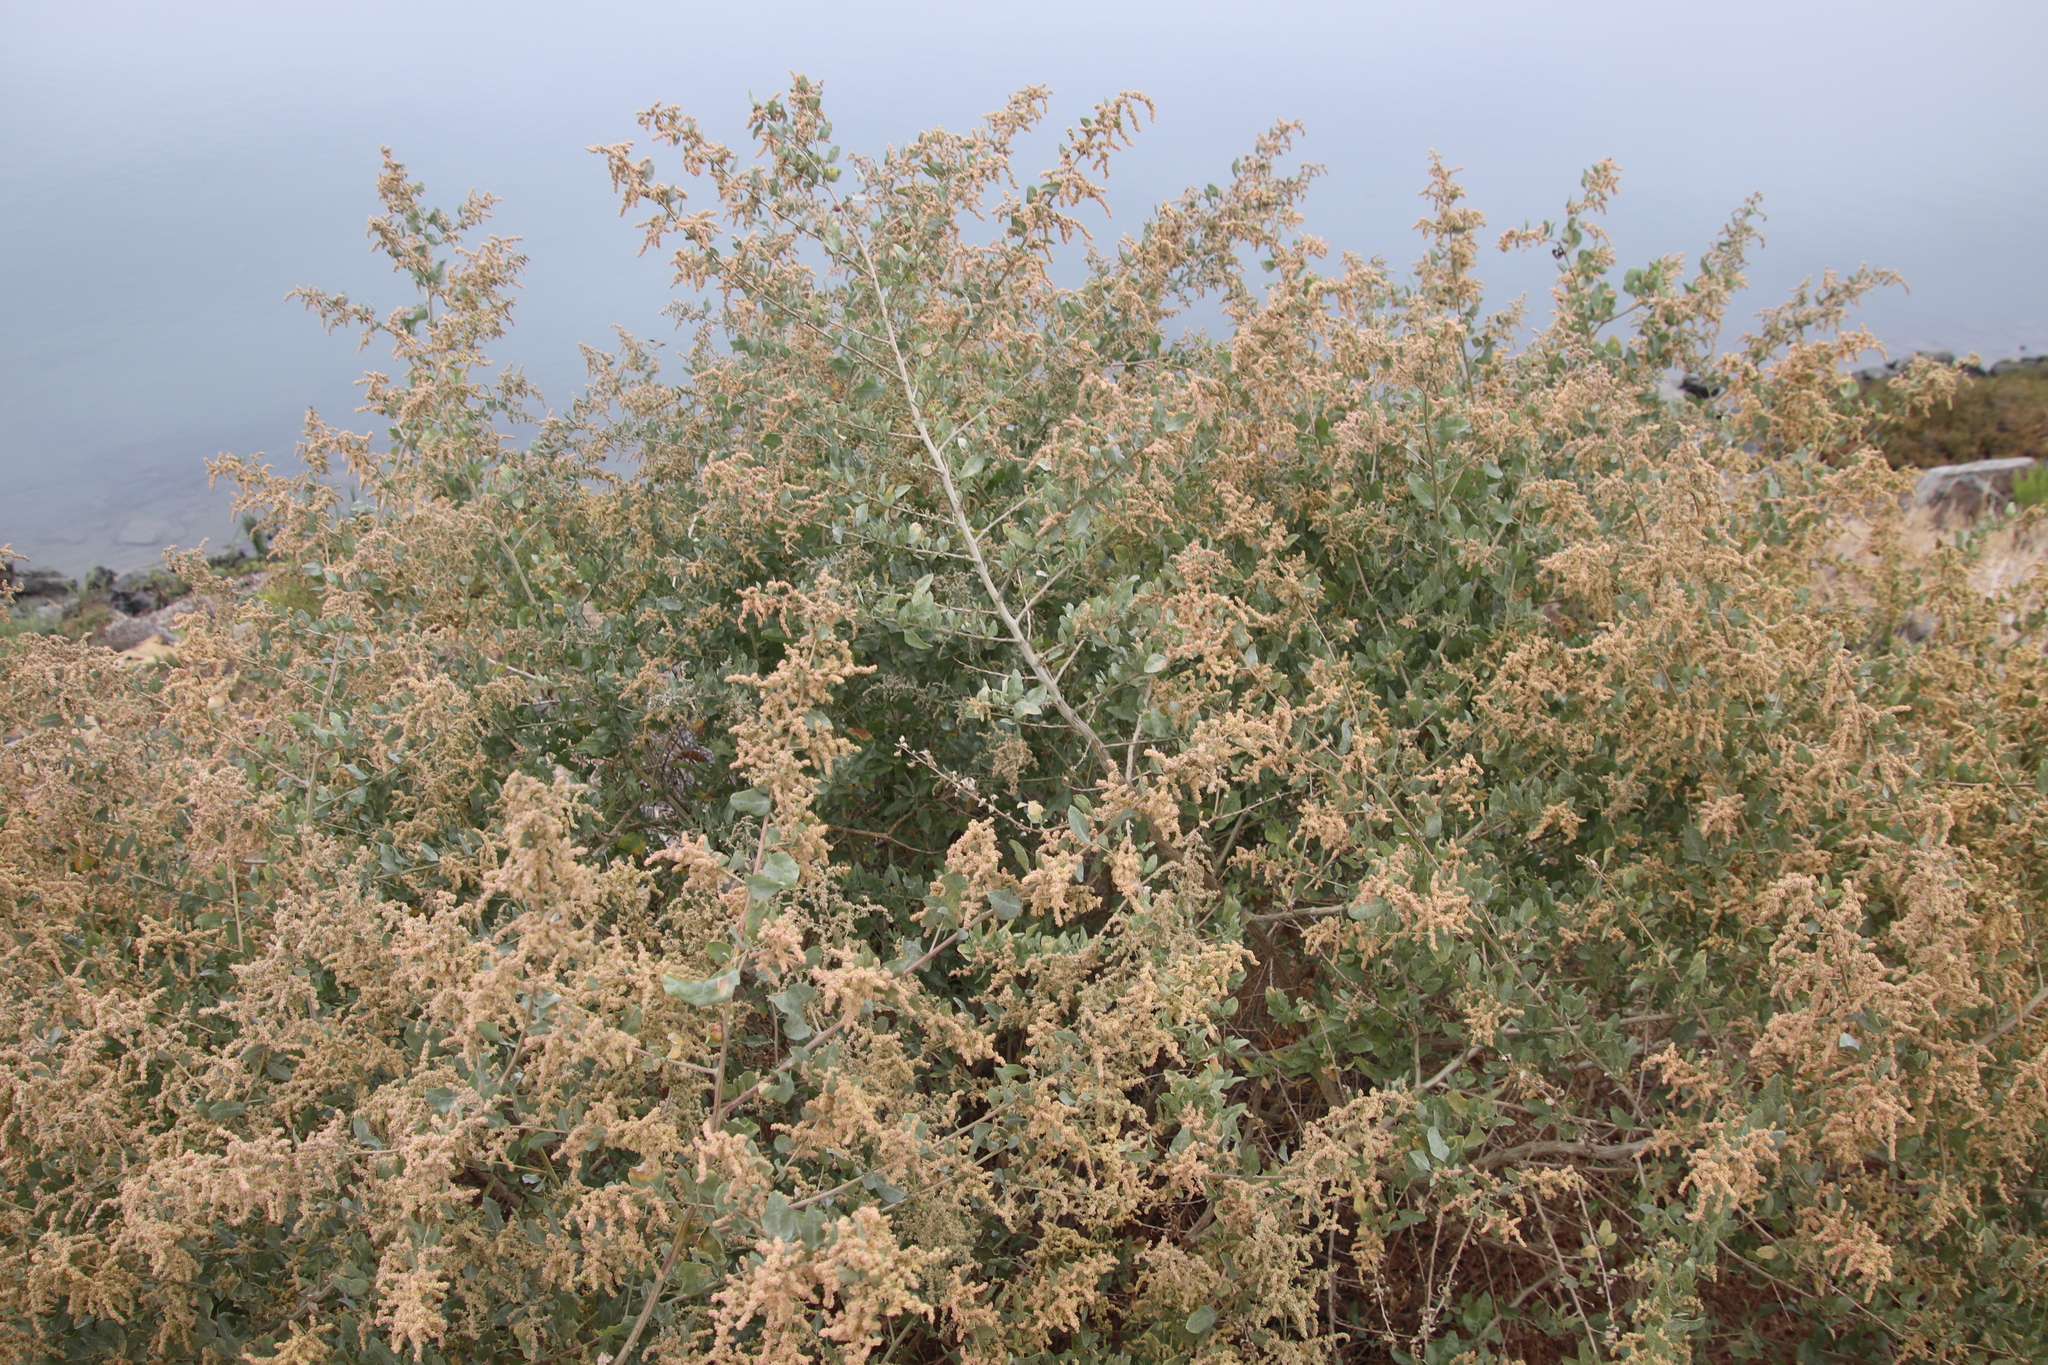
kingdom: Plantae
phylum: Tracheophyta
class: Magnoliopsida
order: Caryophyllales
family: Amaranthaceae
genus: Atriplex
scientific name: Atriplex lentiformis
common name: Big saltbush
